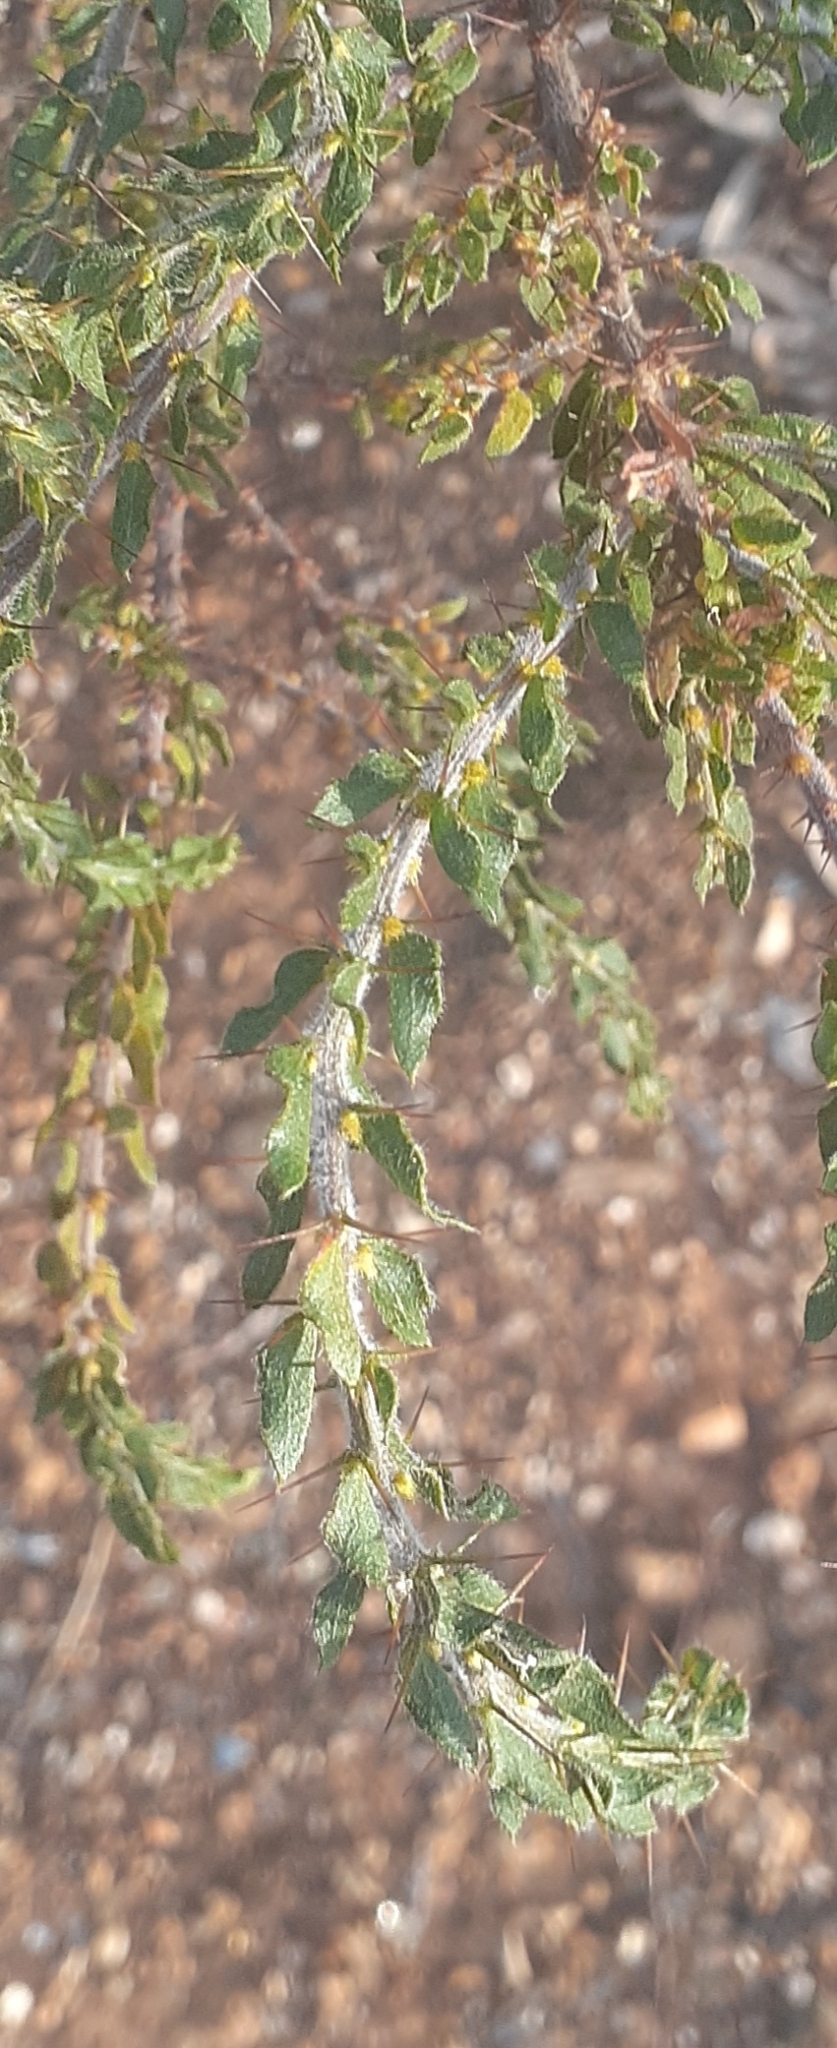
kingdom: Plantae
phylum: Tracheophyta
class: Magnoliopsida
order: Fabales
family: Fabaceae
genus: Acacia
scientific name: Acacia paradoxa
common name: Paradox acacia
